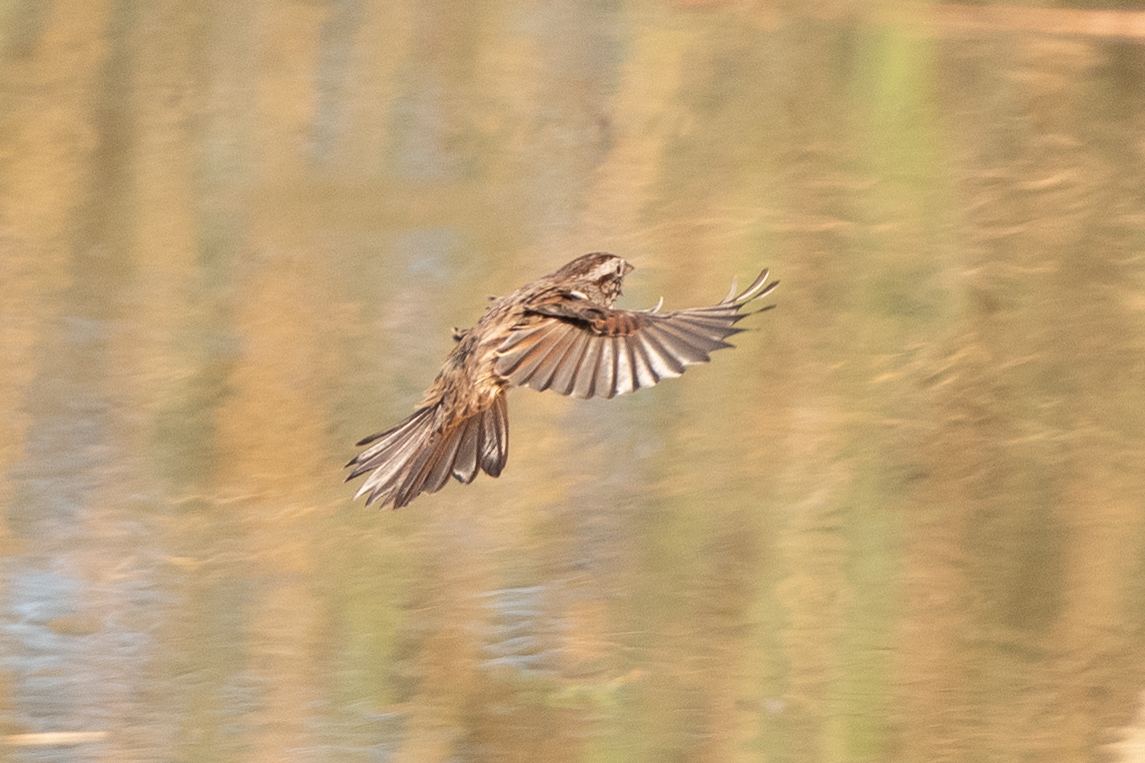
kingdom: Animalia
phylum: Chordata
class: Aves
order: Passeriformes
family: Passerellidae
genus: Melospiza
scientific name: Melospiza melodia
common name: Song sparrow
